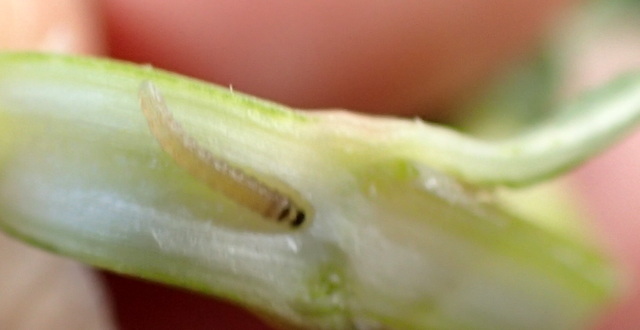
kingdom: Animalia
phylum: Arthropoda
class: Insecta
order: Lepidoptera
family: Pyralidae
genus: Macrorrhinia
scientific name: Macrorrhinia endonephele
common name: Alligator weed stemborer moth
